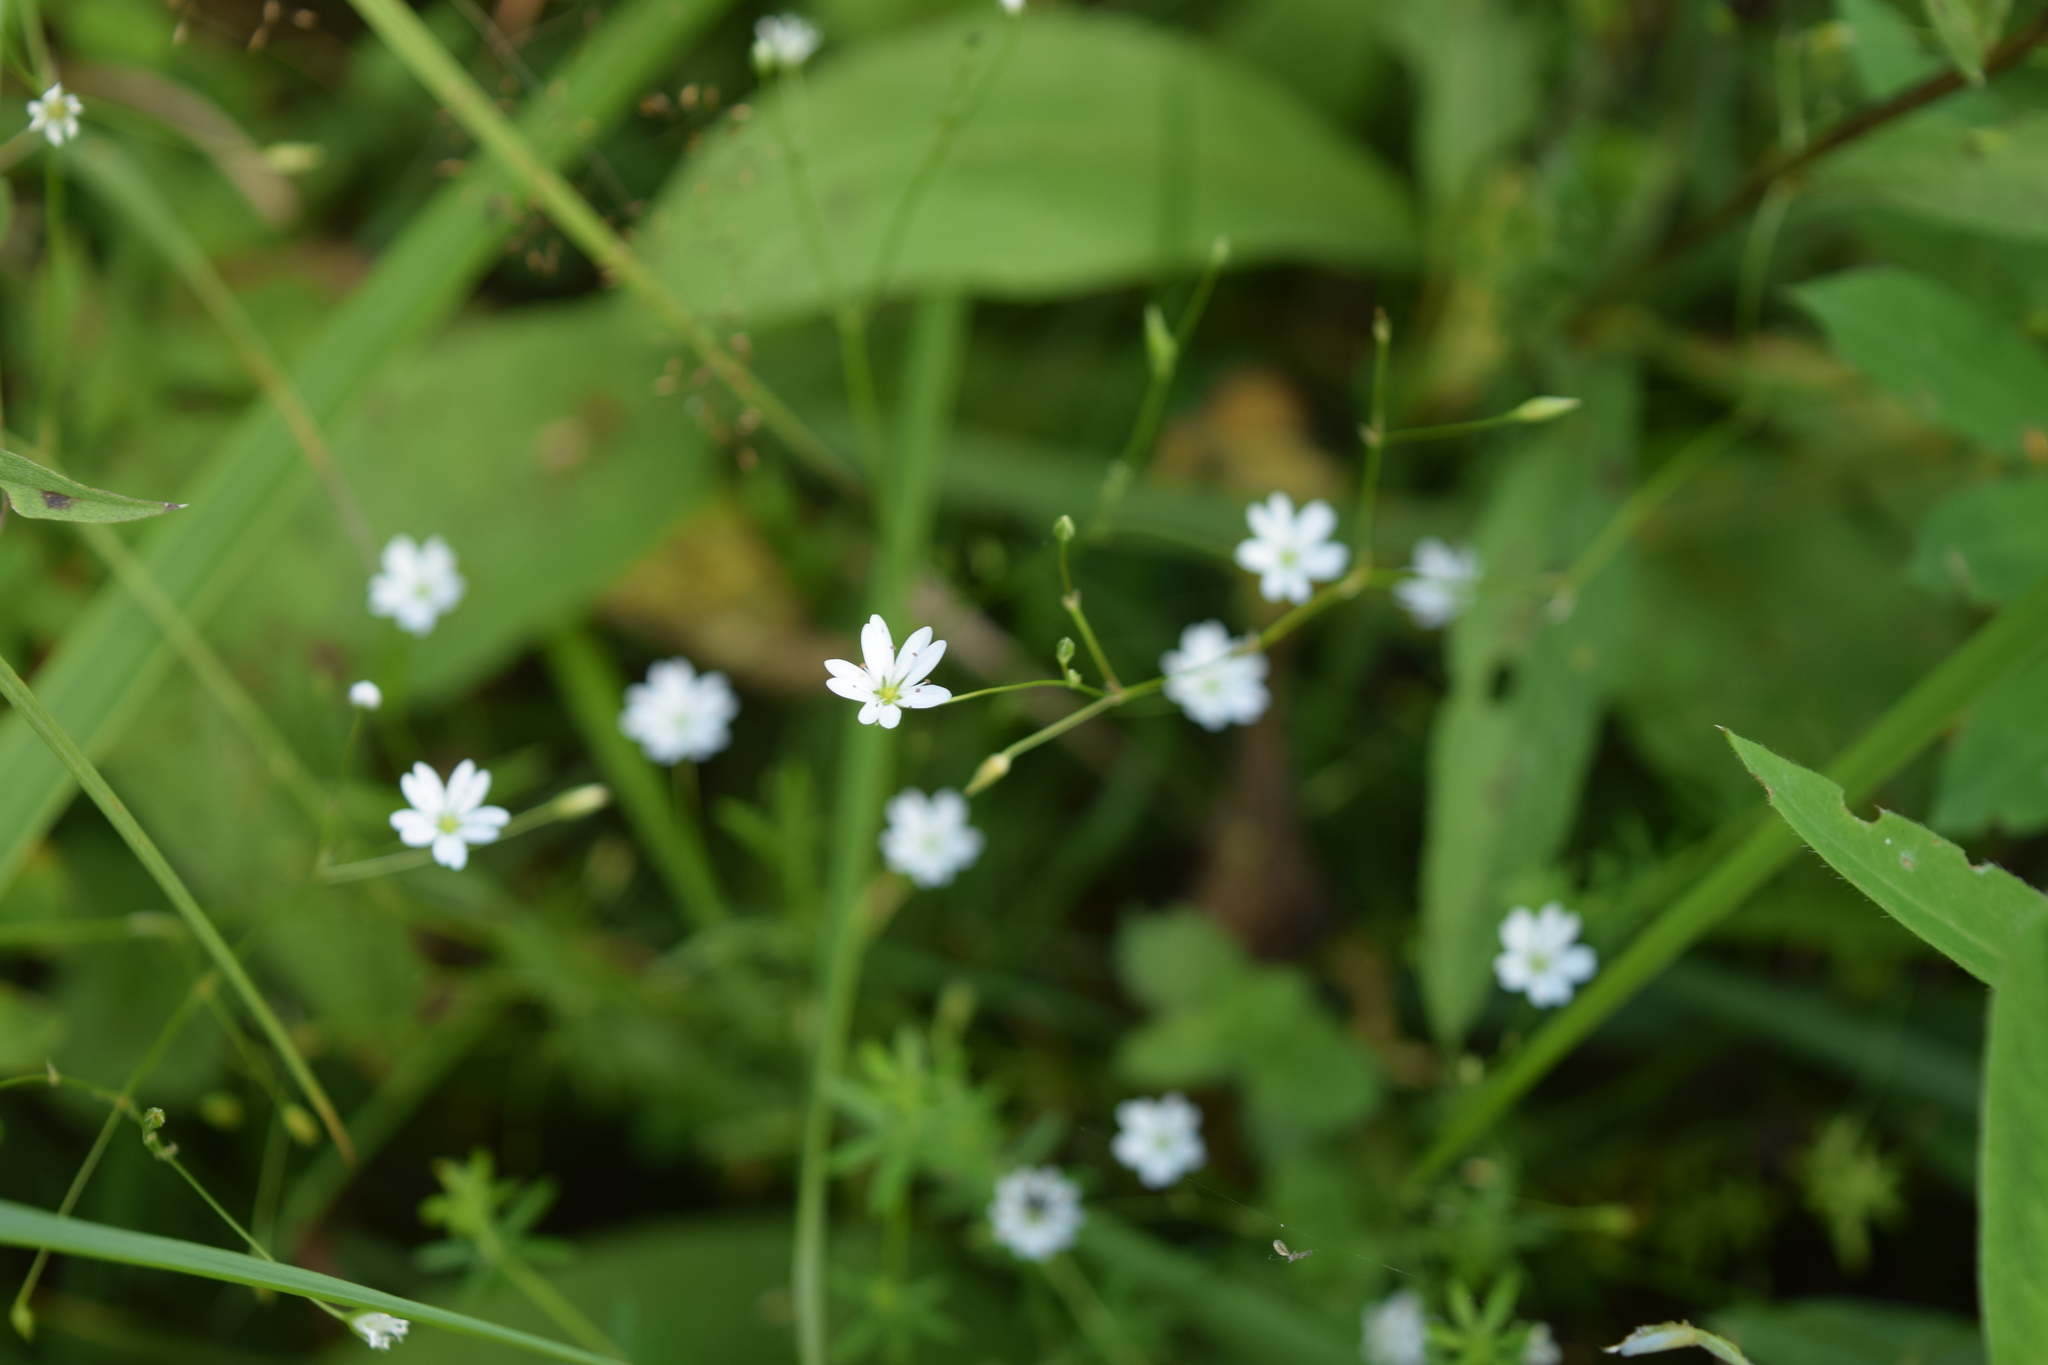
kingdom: Plantae
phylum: Tracheophyta
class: Magnoliopsida
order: Caryophyllales
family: Caryophyllaceae
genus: Stellaria
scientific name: Stellaria graminea
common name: Grass-like starwort
